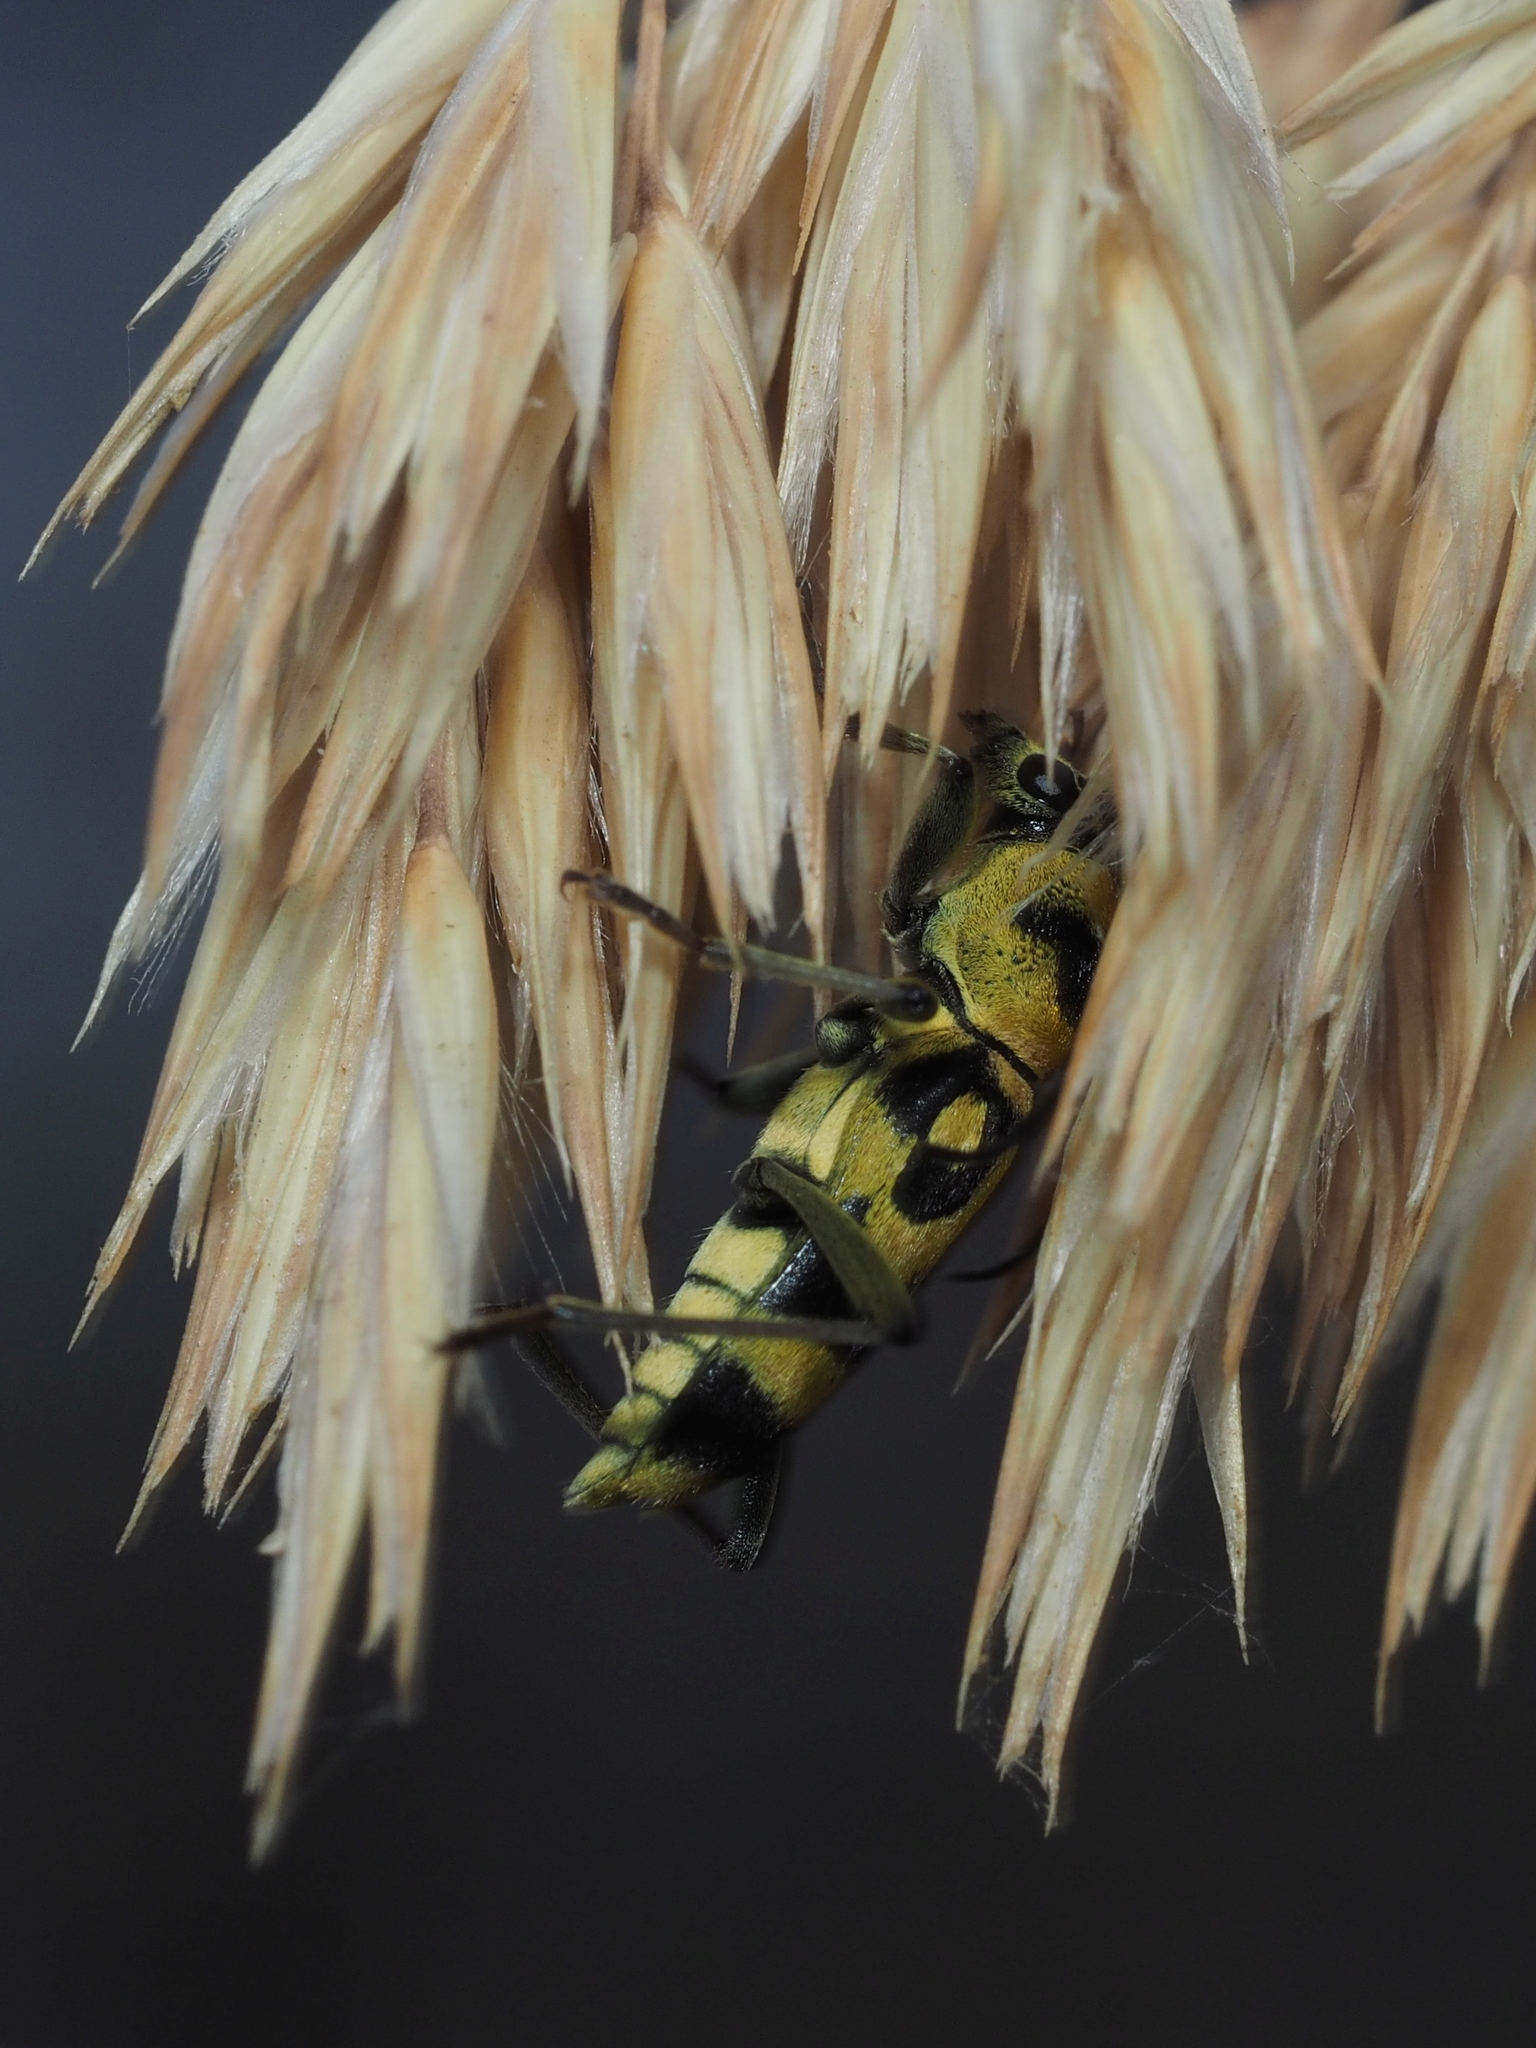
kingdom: Animalia
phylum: Arthropoda
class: Insecta
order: Coleoptera
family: Cerambycidae
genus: Chlorophorus
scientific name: Chlorophorus varius
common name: Grape wood borer
